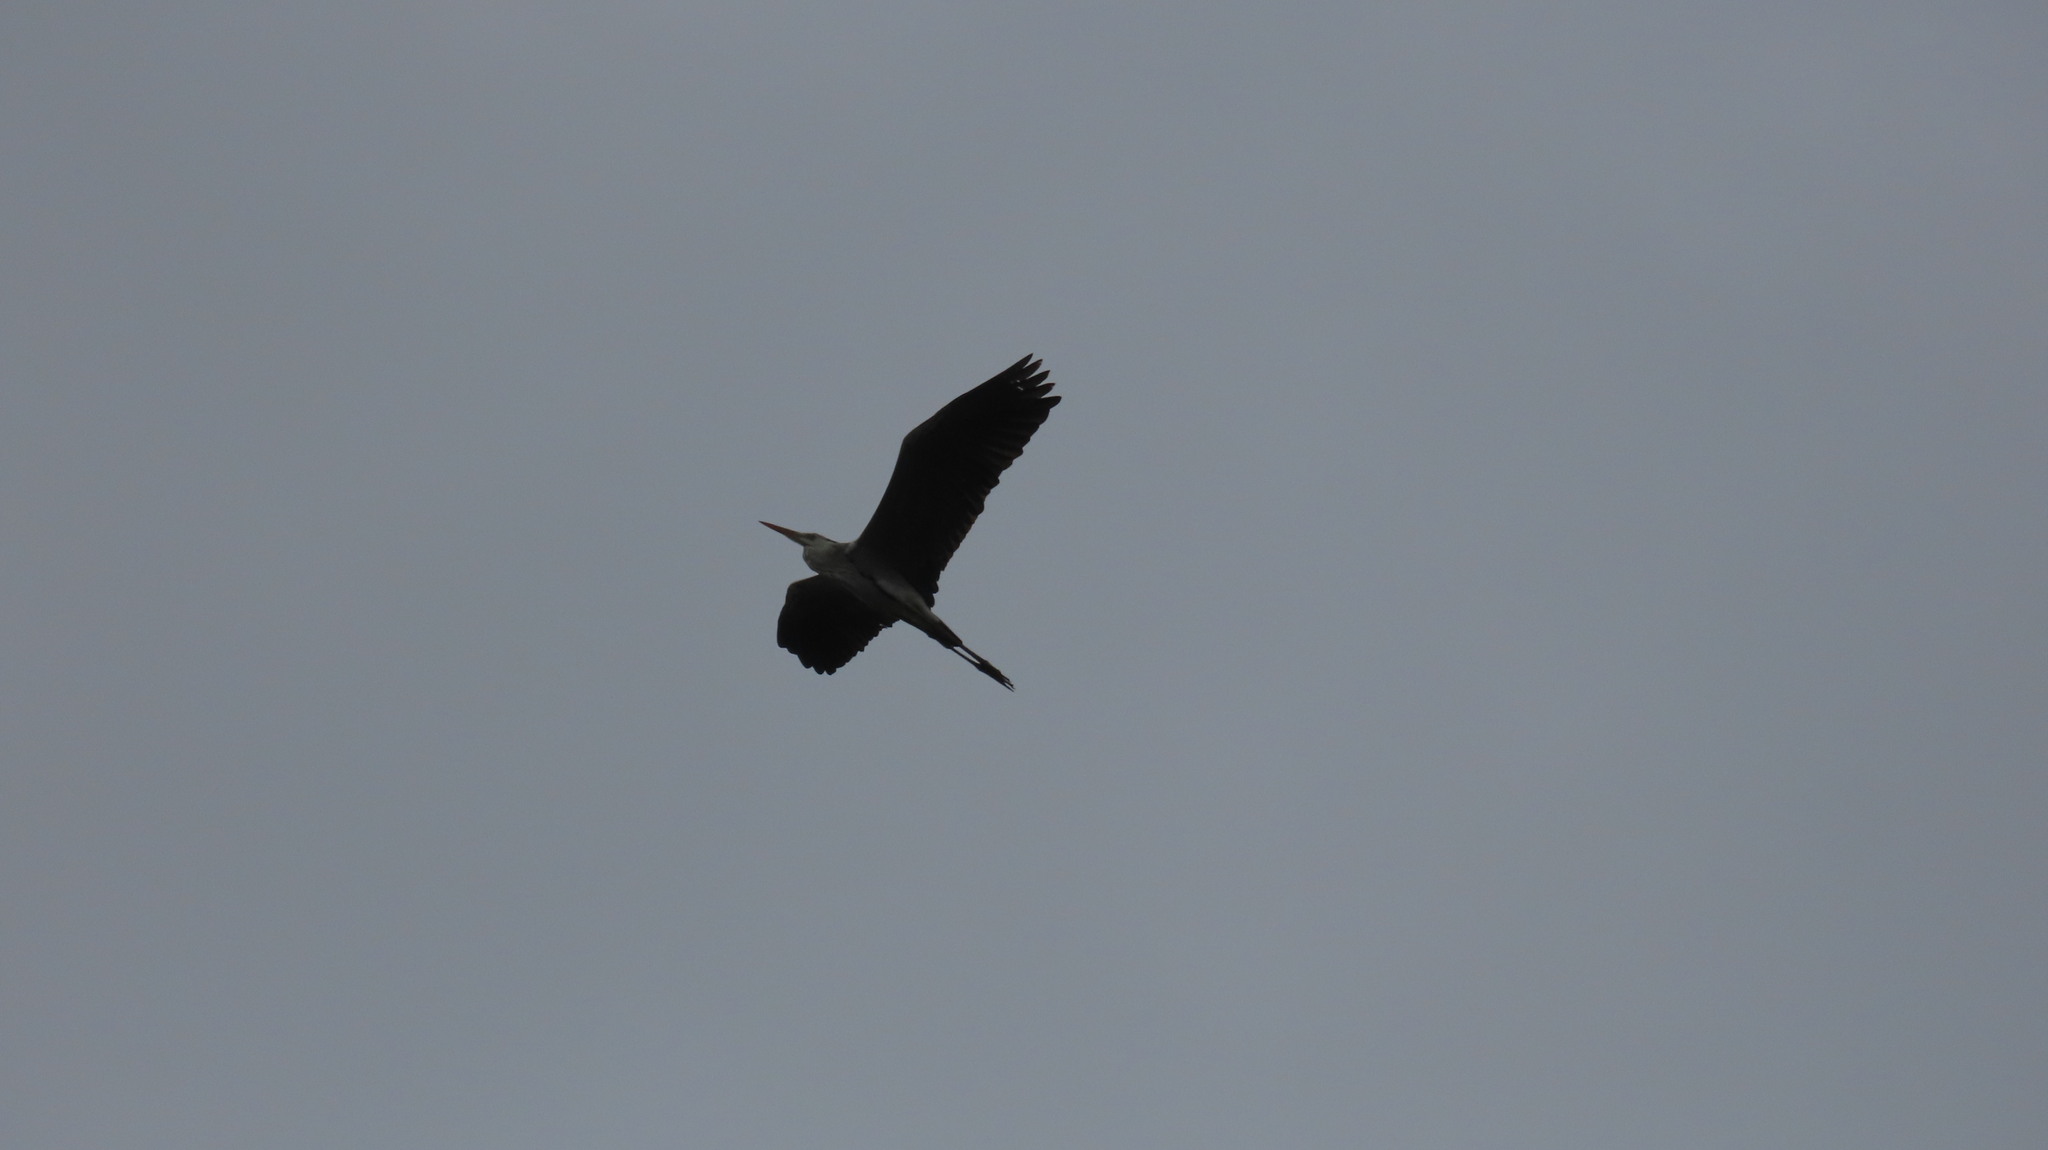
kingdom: Animalia
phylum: Chordata
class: Aves
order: Pelecaniformes
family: Ardeidae
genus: Ardea
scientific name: Ardea cinerea
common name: Grey heron
